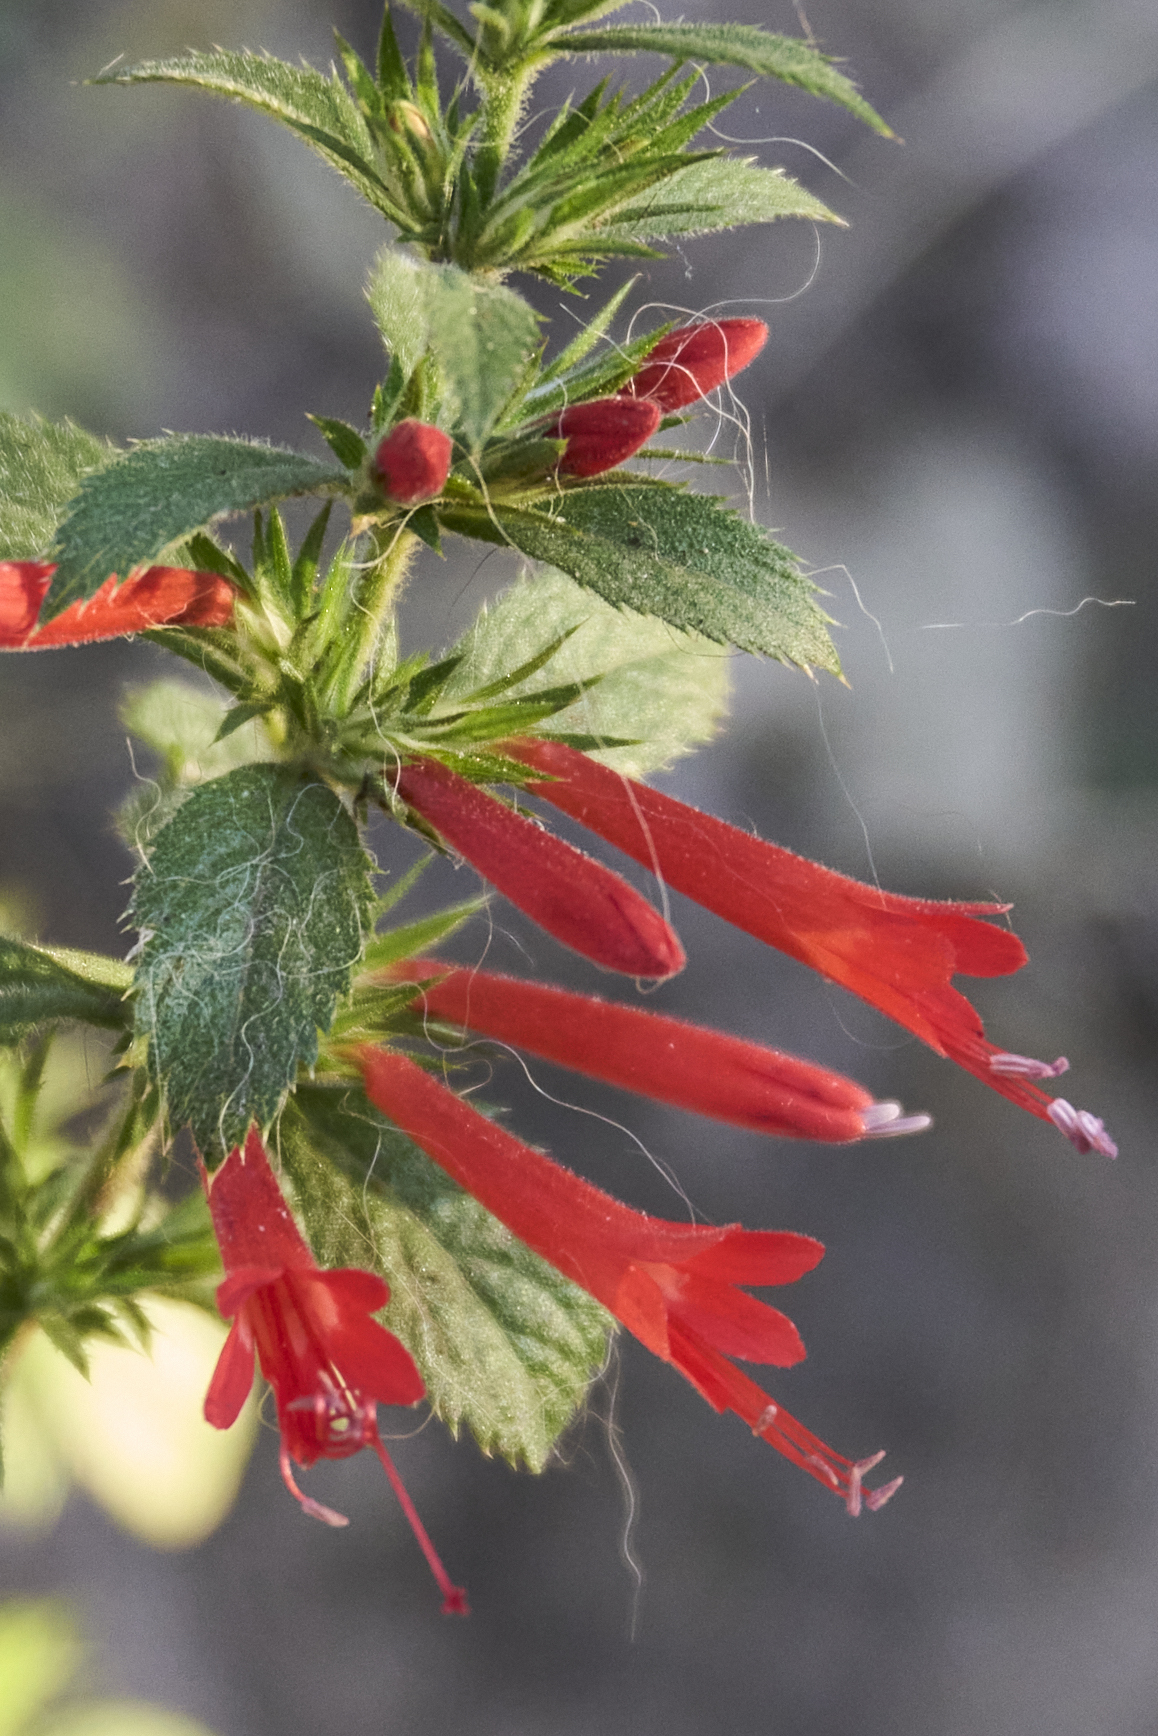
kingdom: Plantae
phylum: Tracheophyta
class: Magnoliopsida
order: Ericales
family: Polemoniaceae
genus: Loeselia
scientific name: Loeselia mexicana
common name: Mexican false calico
